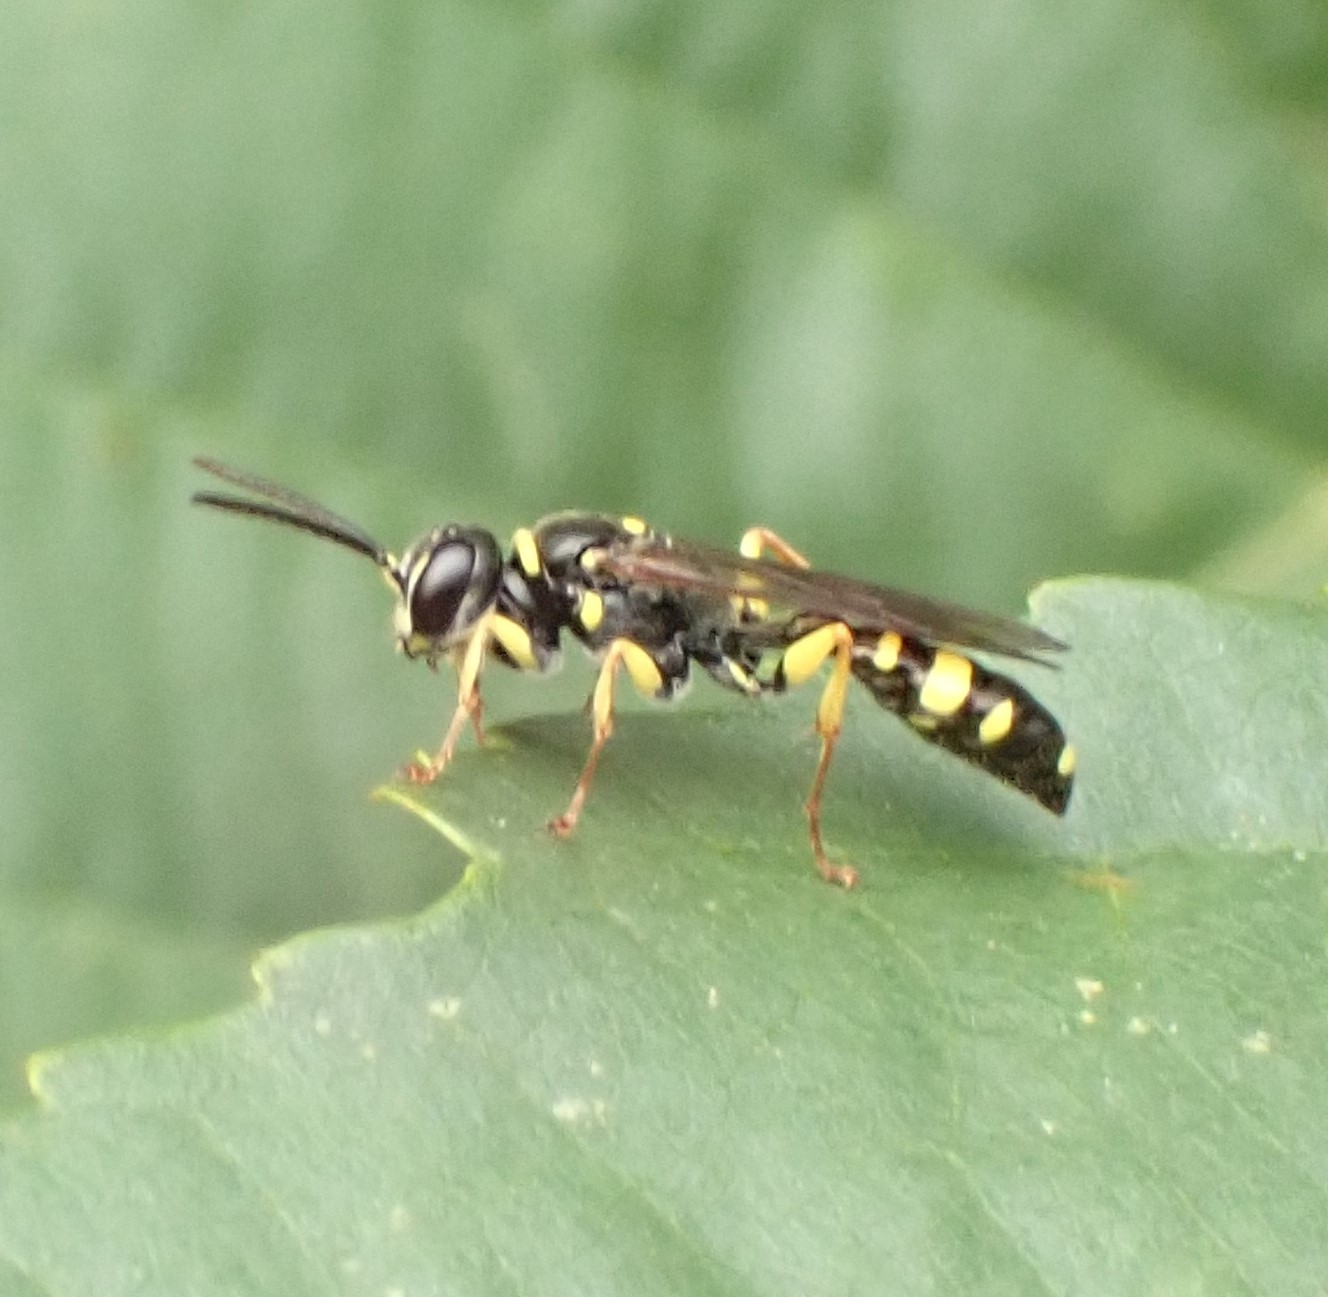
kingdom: Animalia
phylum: Arthropoda
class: Insecta
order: Hymenoptera
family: Crabronidae
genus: Mellinus
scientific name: Mellinus arvensis
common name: Field digger wasp
